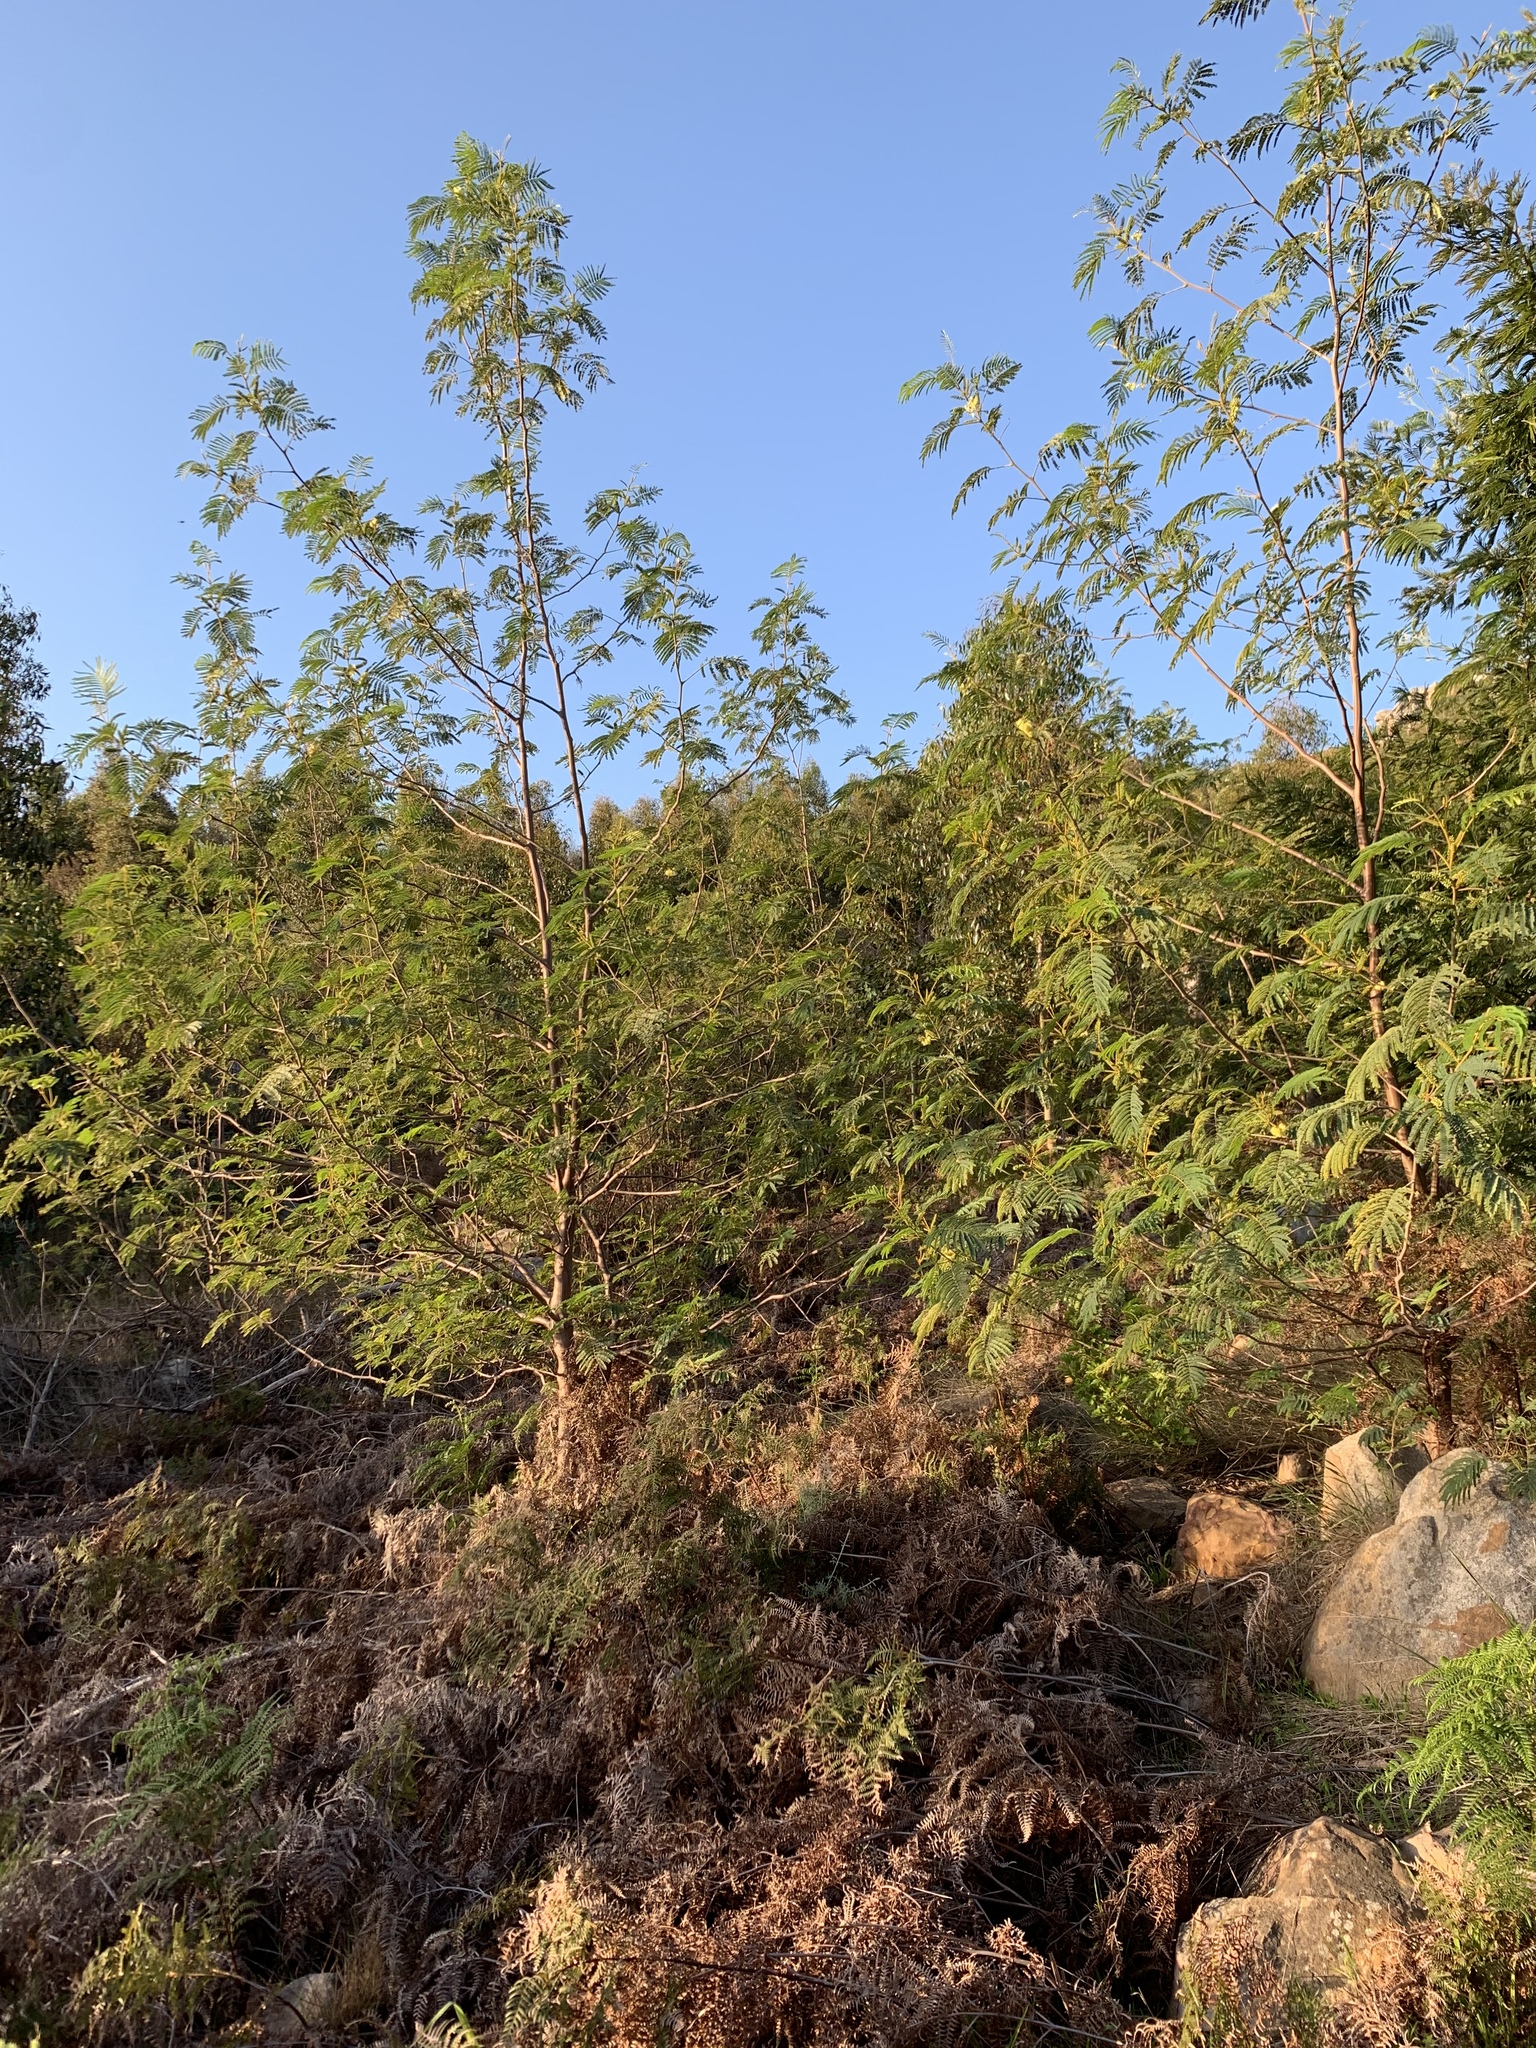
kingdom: Plantae
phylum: Tracheophyta
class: Magnoliopsida
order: Fabales
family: Fabaceae
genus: Paraserianthes
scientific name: Paraserianthes lophantha
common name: Plume albizia
